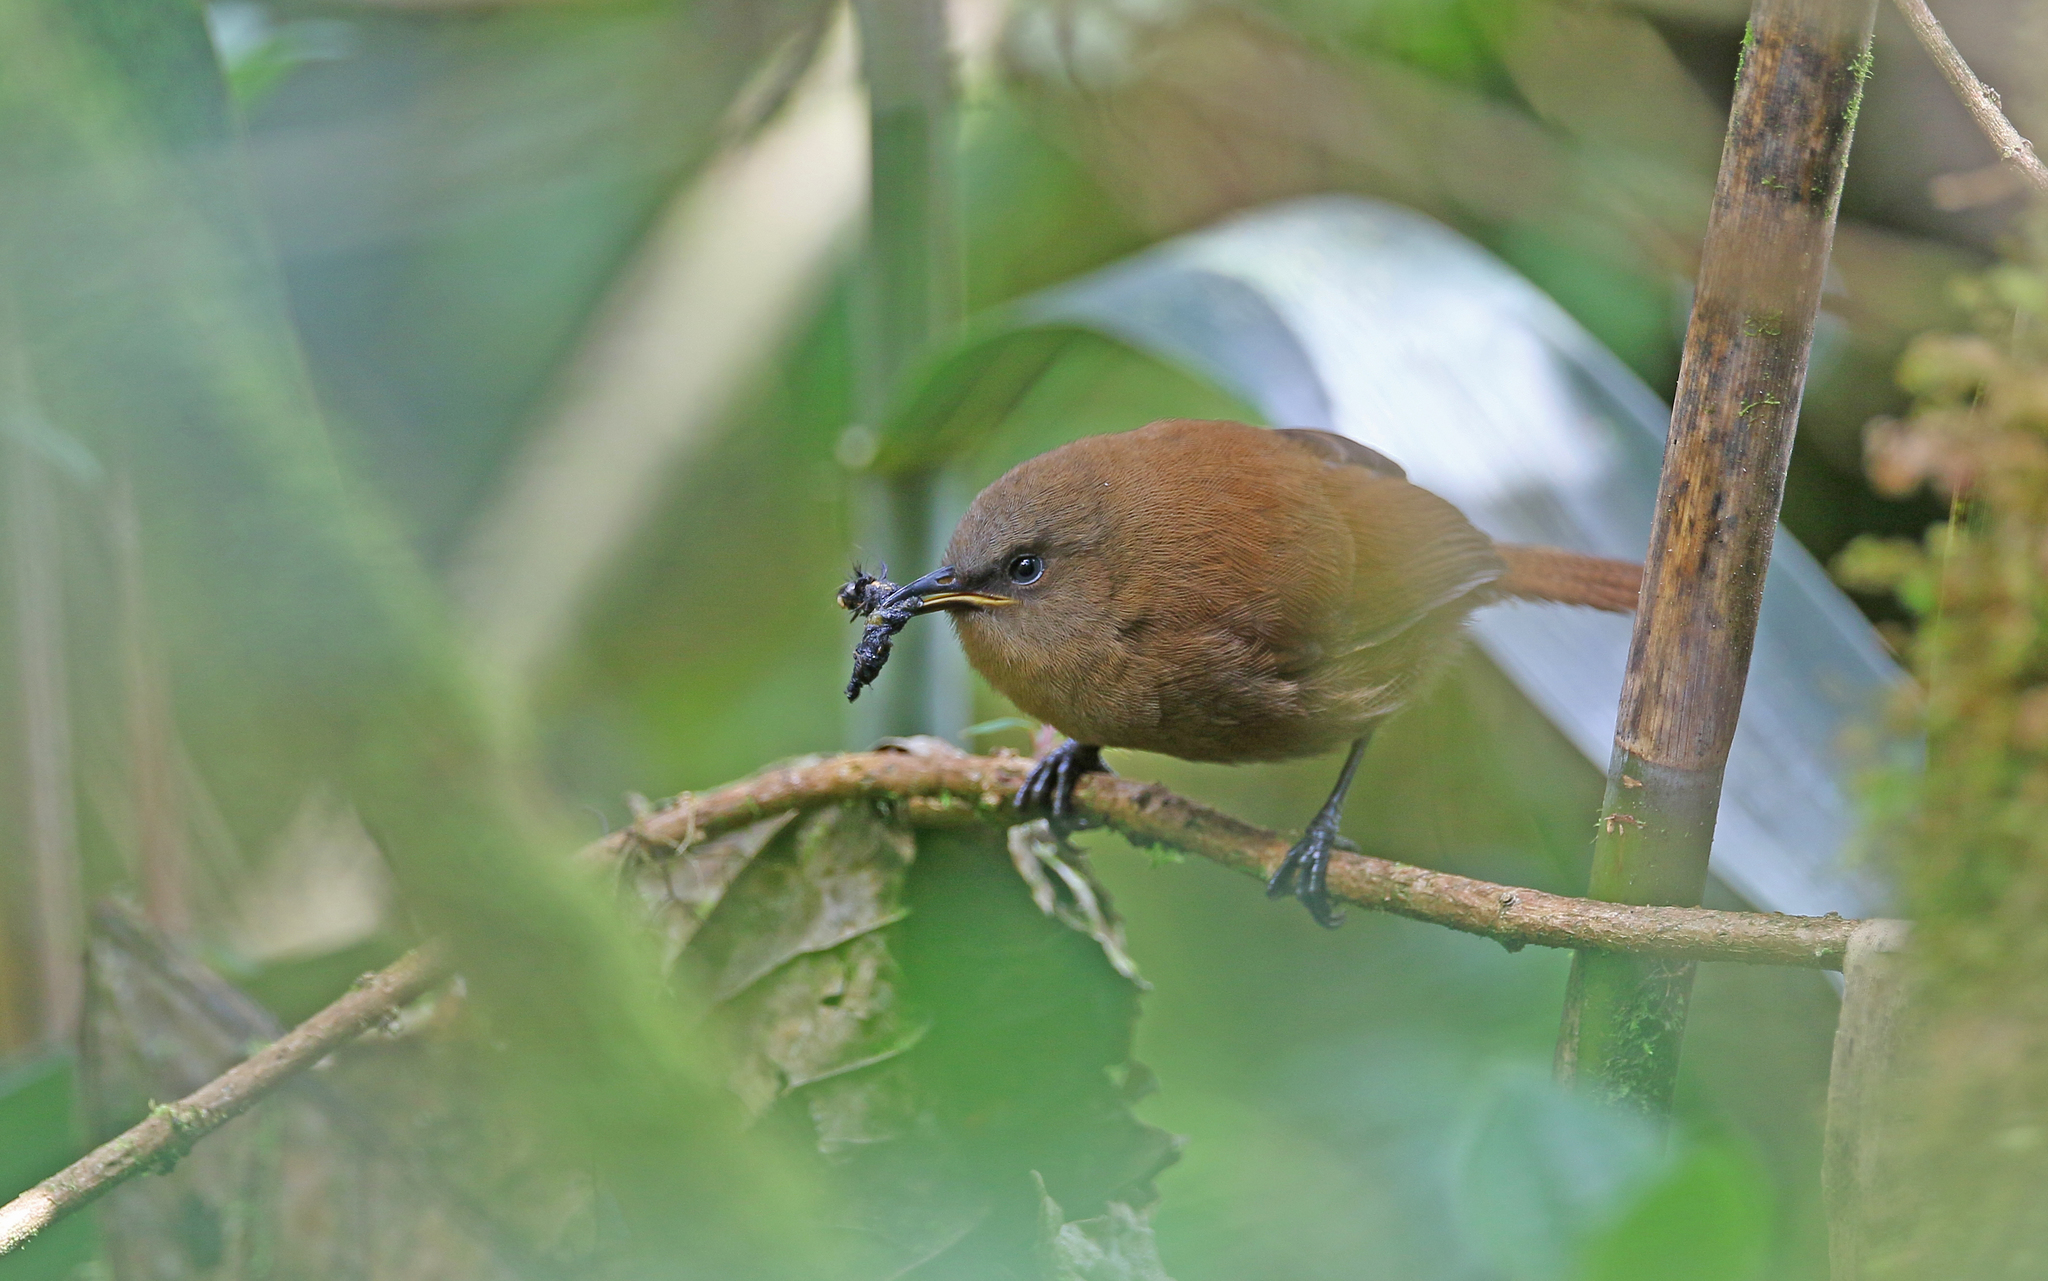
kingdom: Animalia
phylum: Chordata
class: Aves
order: Passeriformes
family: Troglodytidae
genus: Cinnycerthia
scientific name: Cinnycerthia unirufa
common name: Rufous wren
